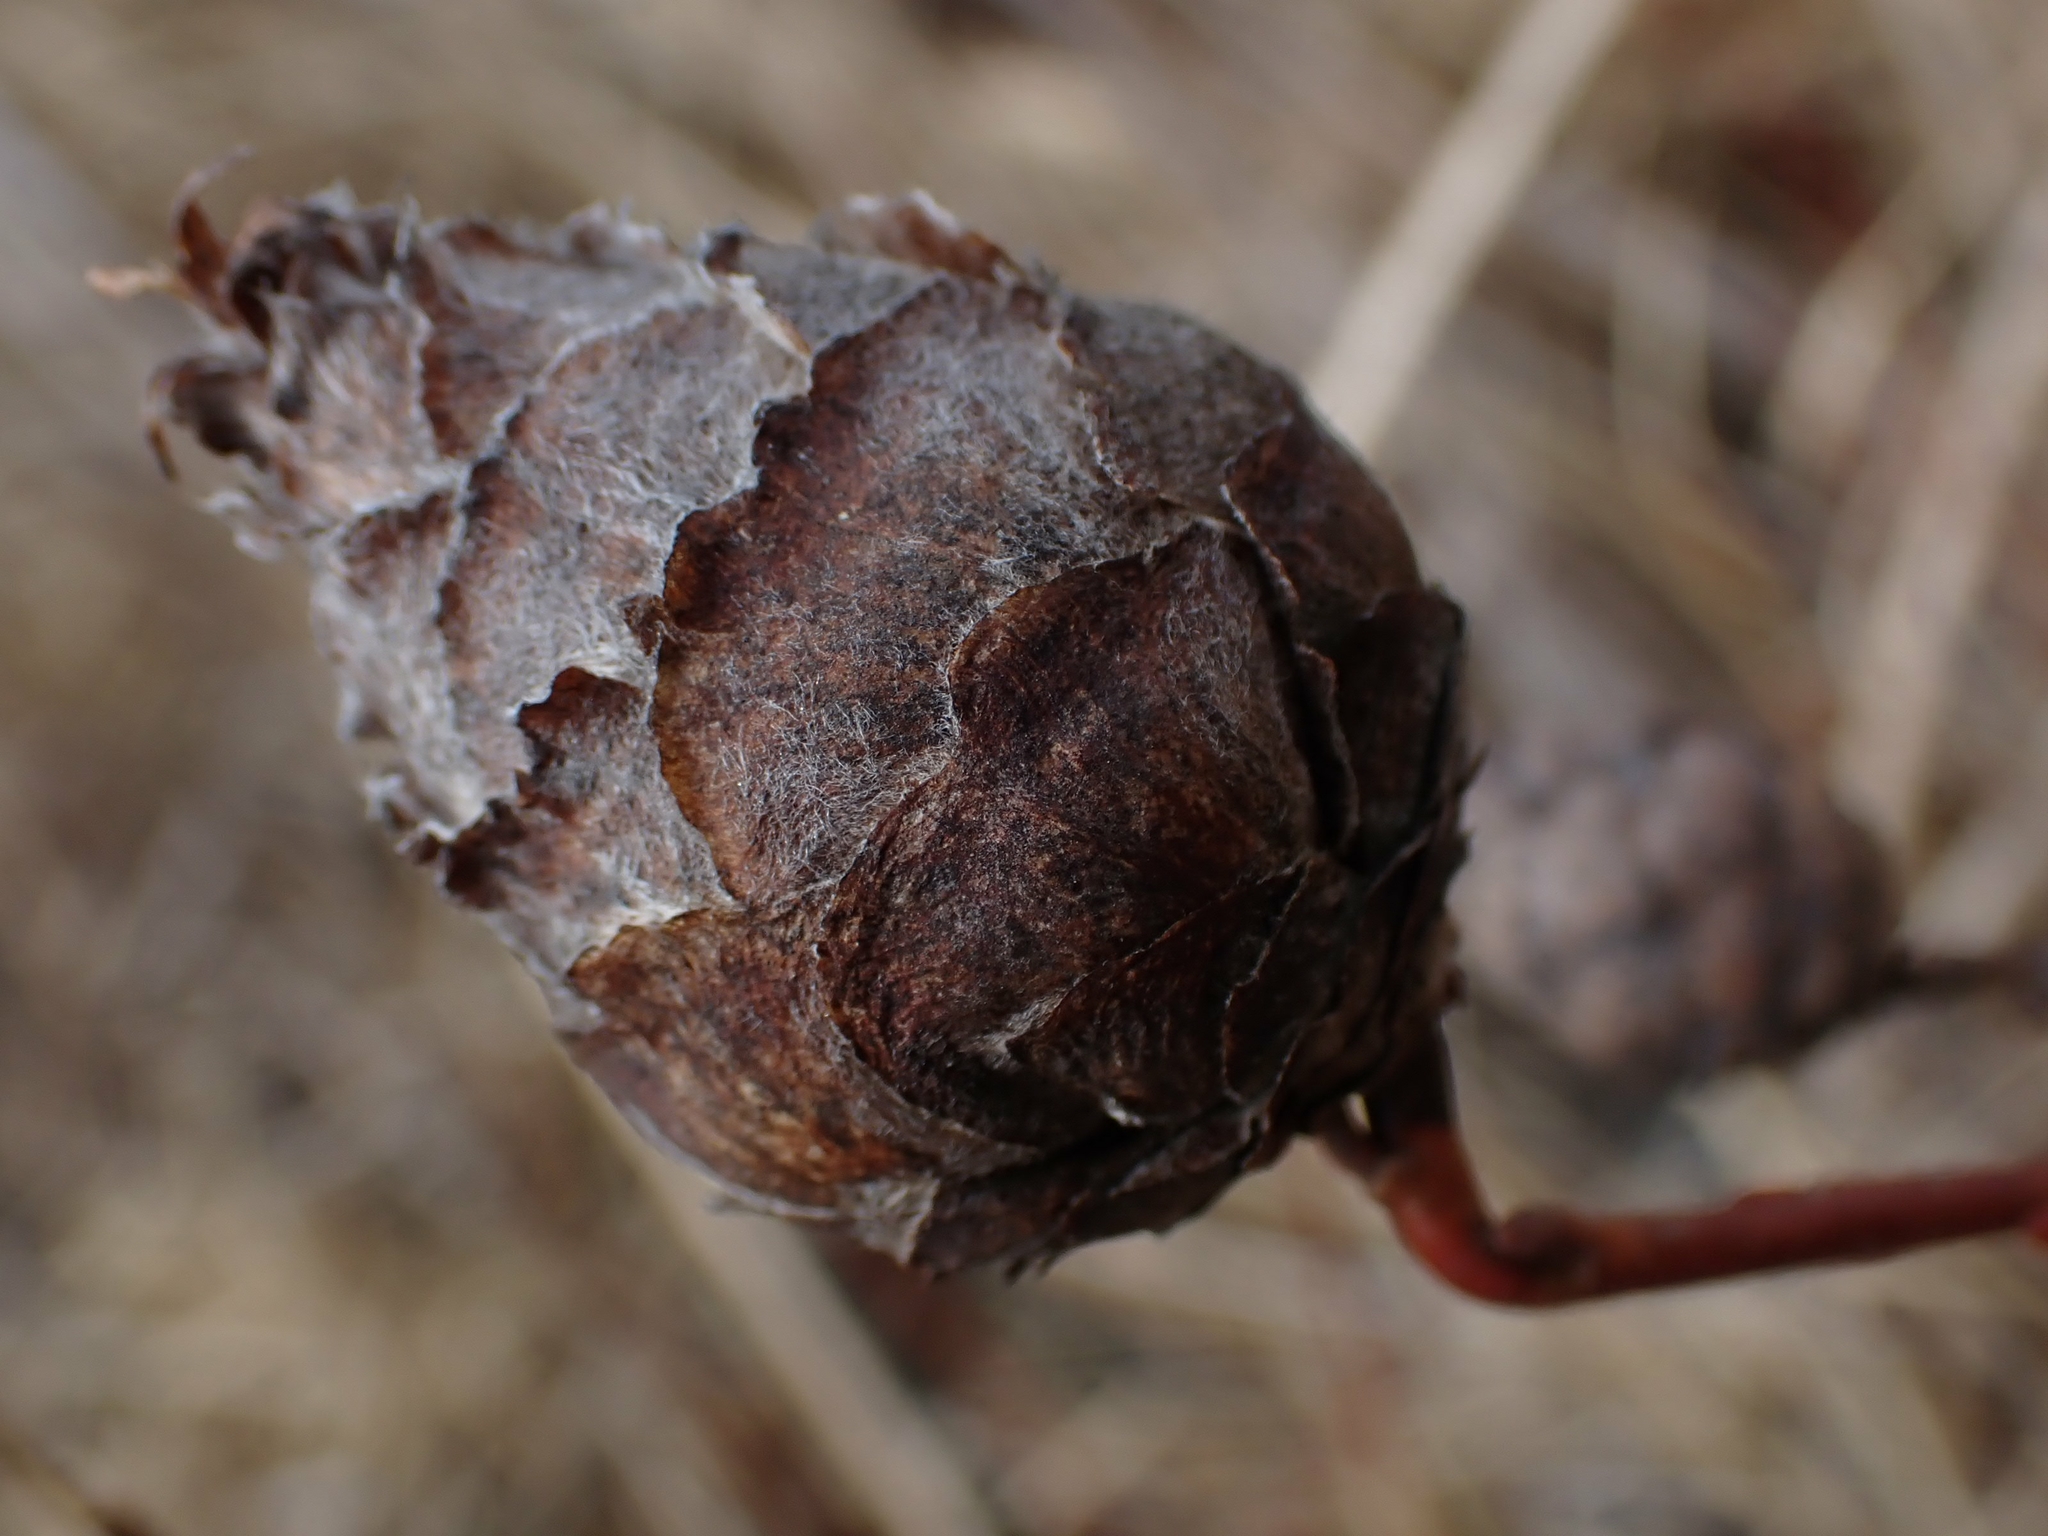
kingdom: Animalia
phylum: Arthropoda
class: Insecta
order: Diptera
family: Cecidomyiidae
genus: Rabdophaga
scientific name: Rabdophaga strobiloides
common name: Willow pinecone gall midge
